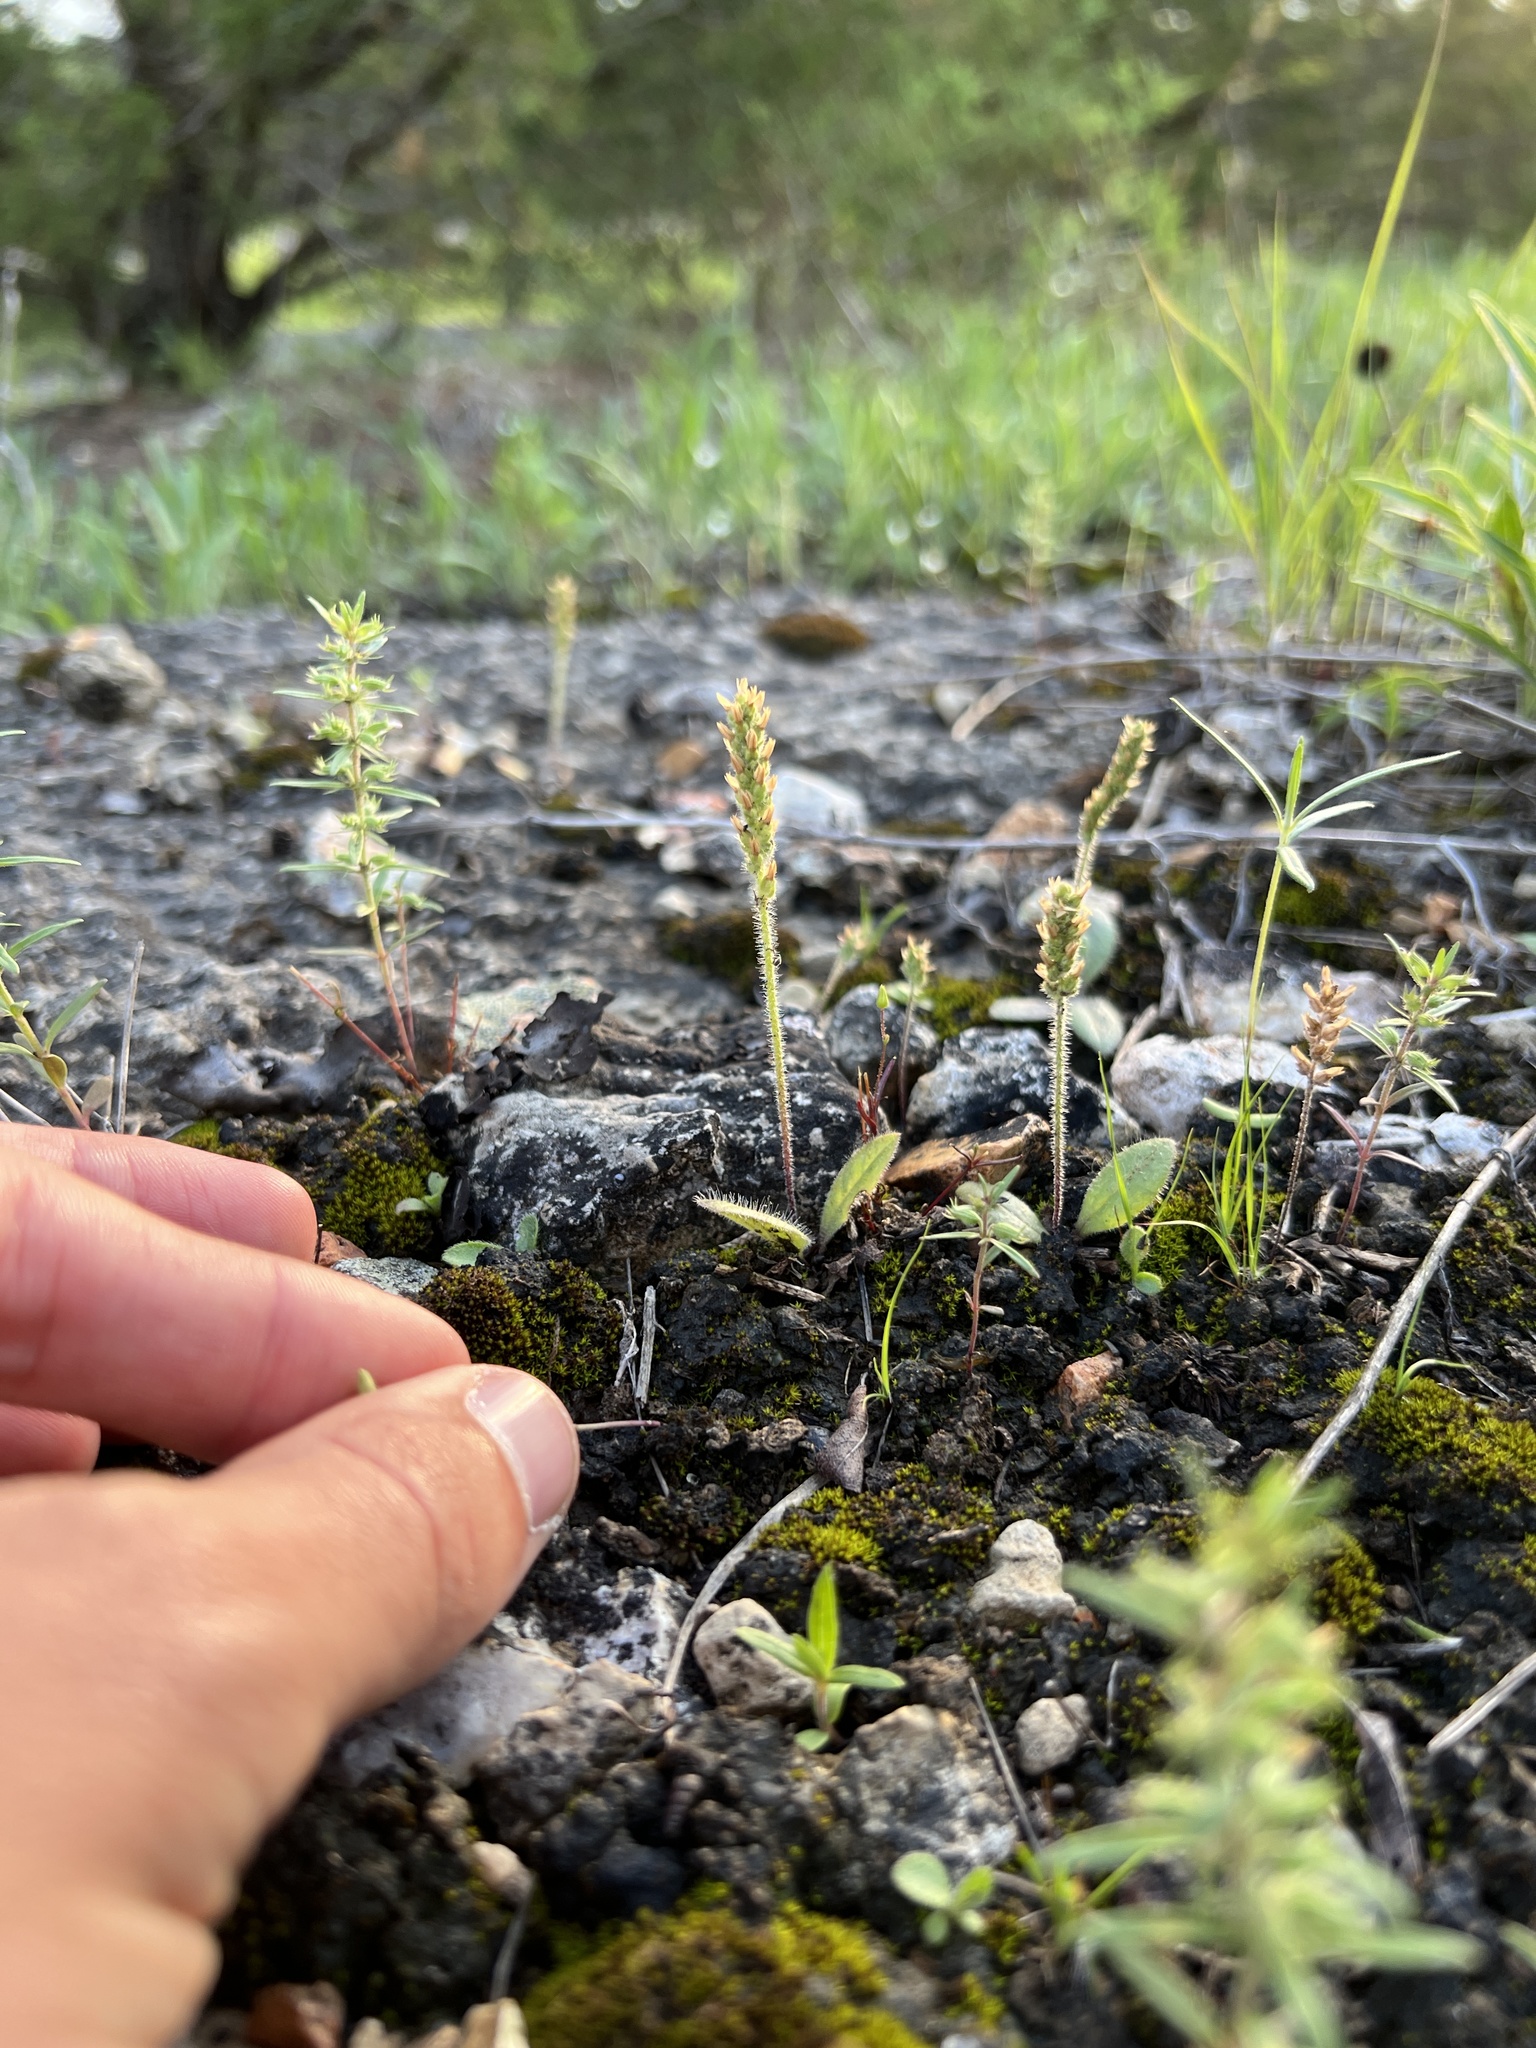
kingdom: Plantae
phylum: Tracheophyta
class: Magnoliopsida
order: Lamiales
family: Plantaginaceae
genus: Plantago
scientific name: Plantago virginica
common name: Hoary plantain
